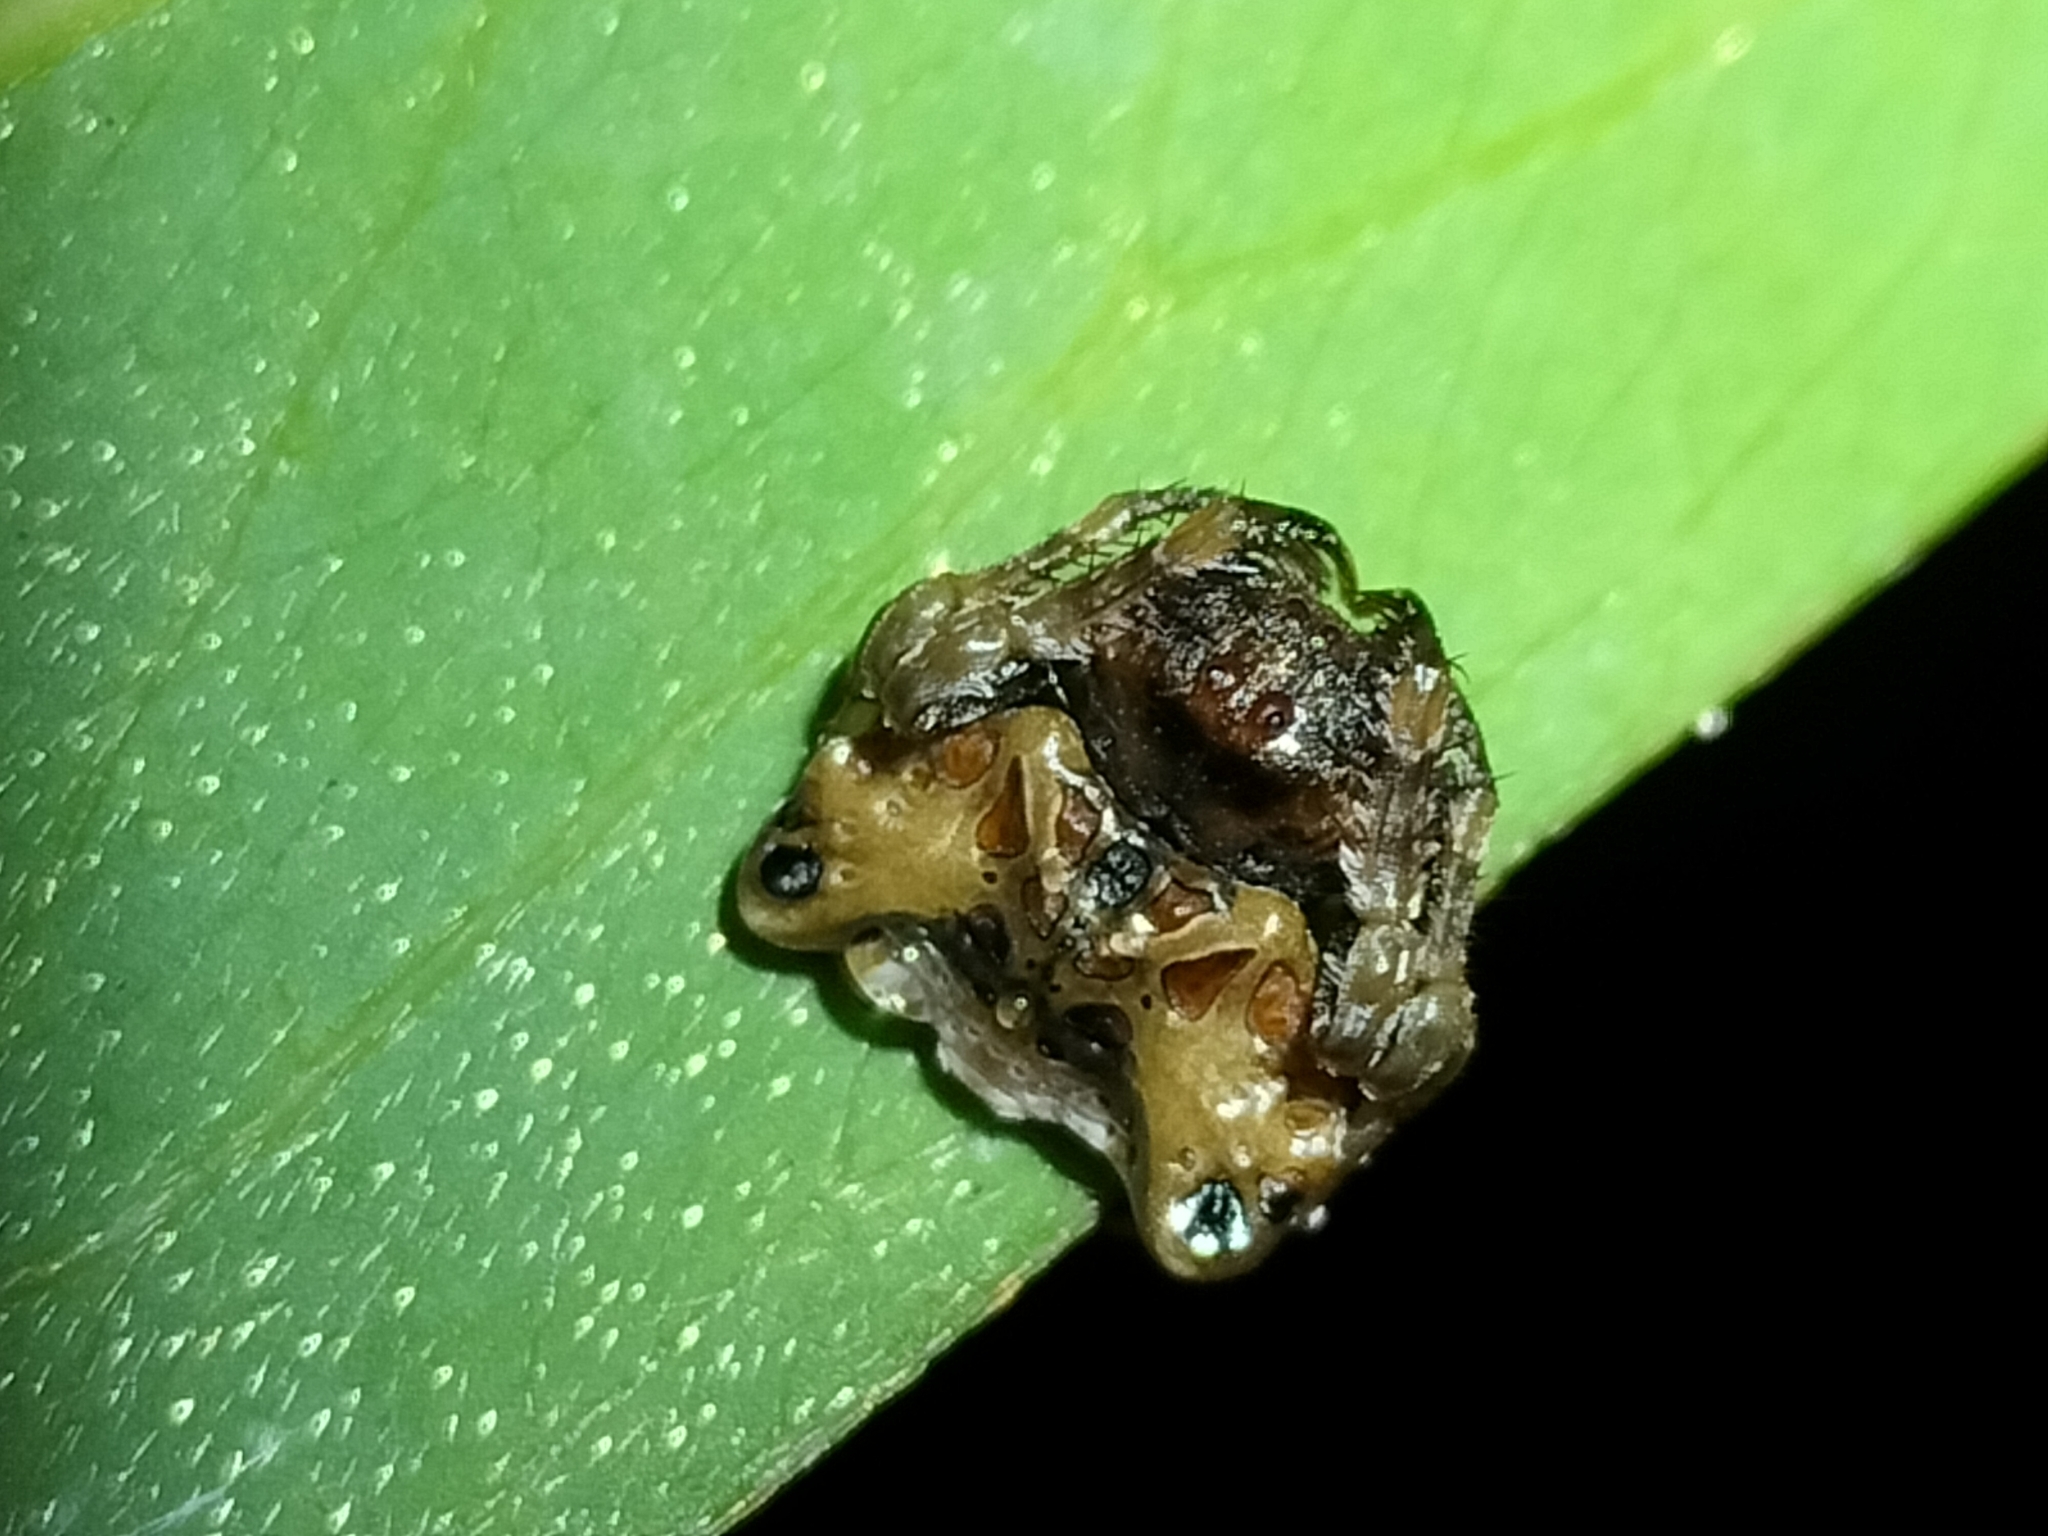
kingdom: Animalia
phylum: Arthropoda
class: Arachnida
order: Araneae
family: Arkyidae
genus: Arkys
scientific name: Arkys curtulus
